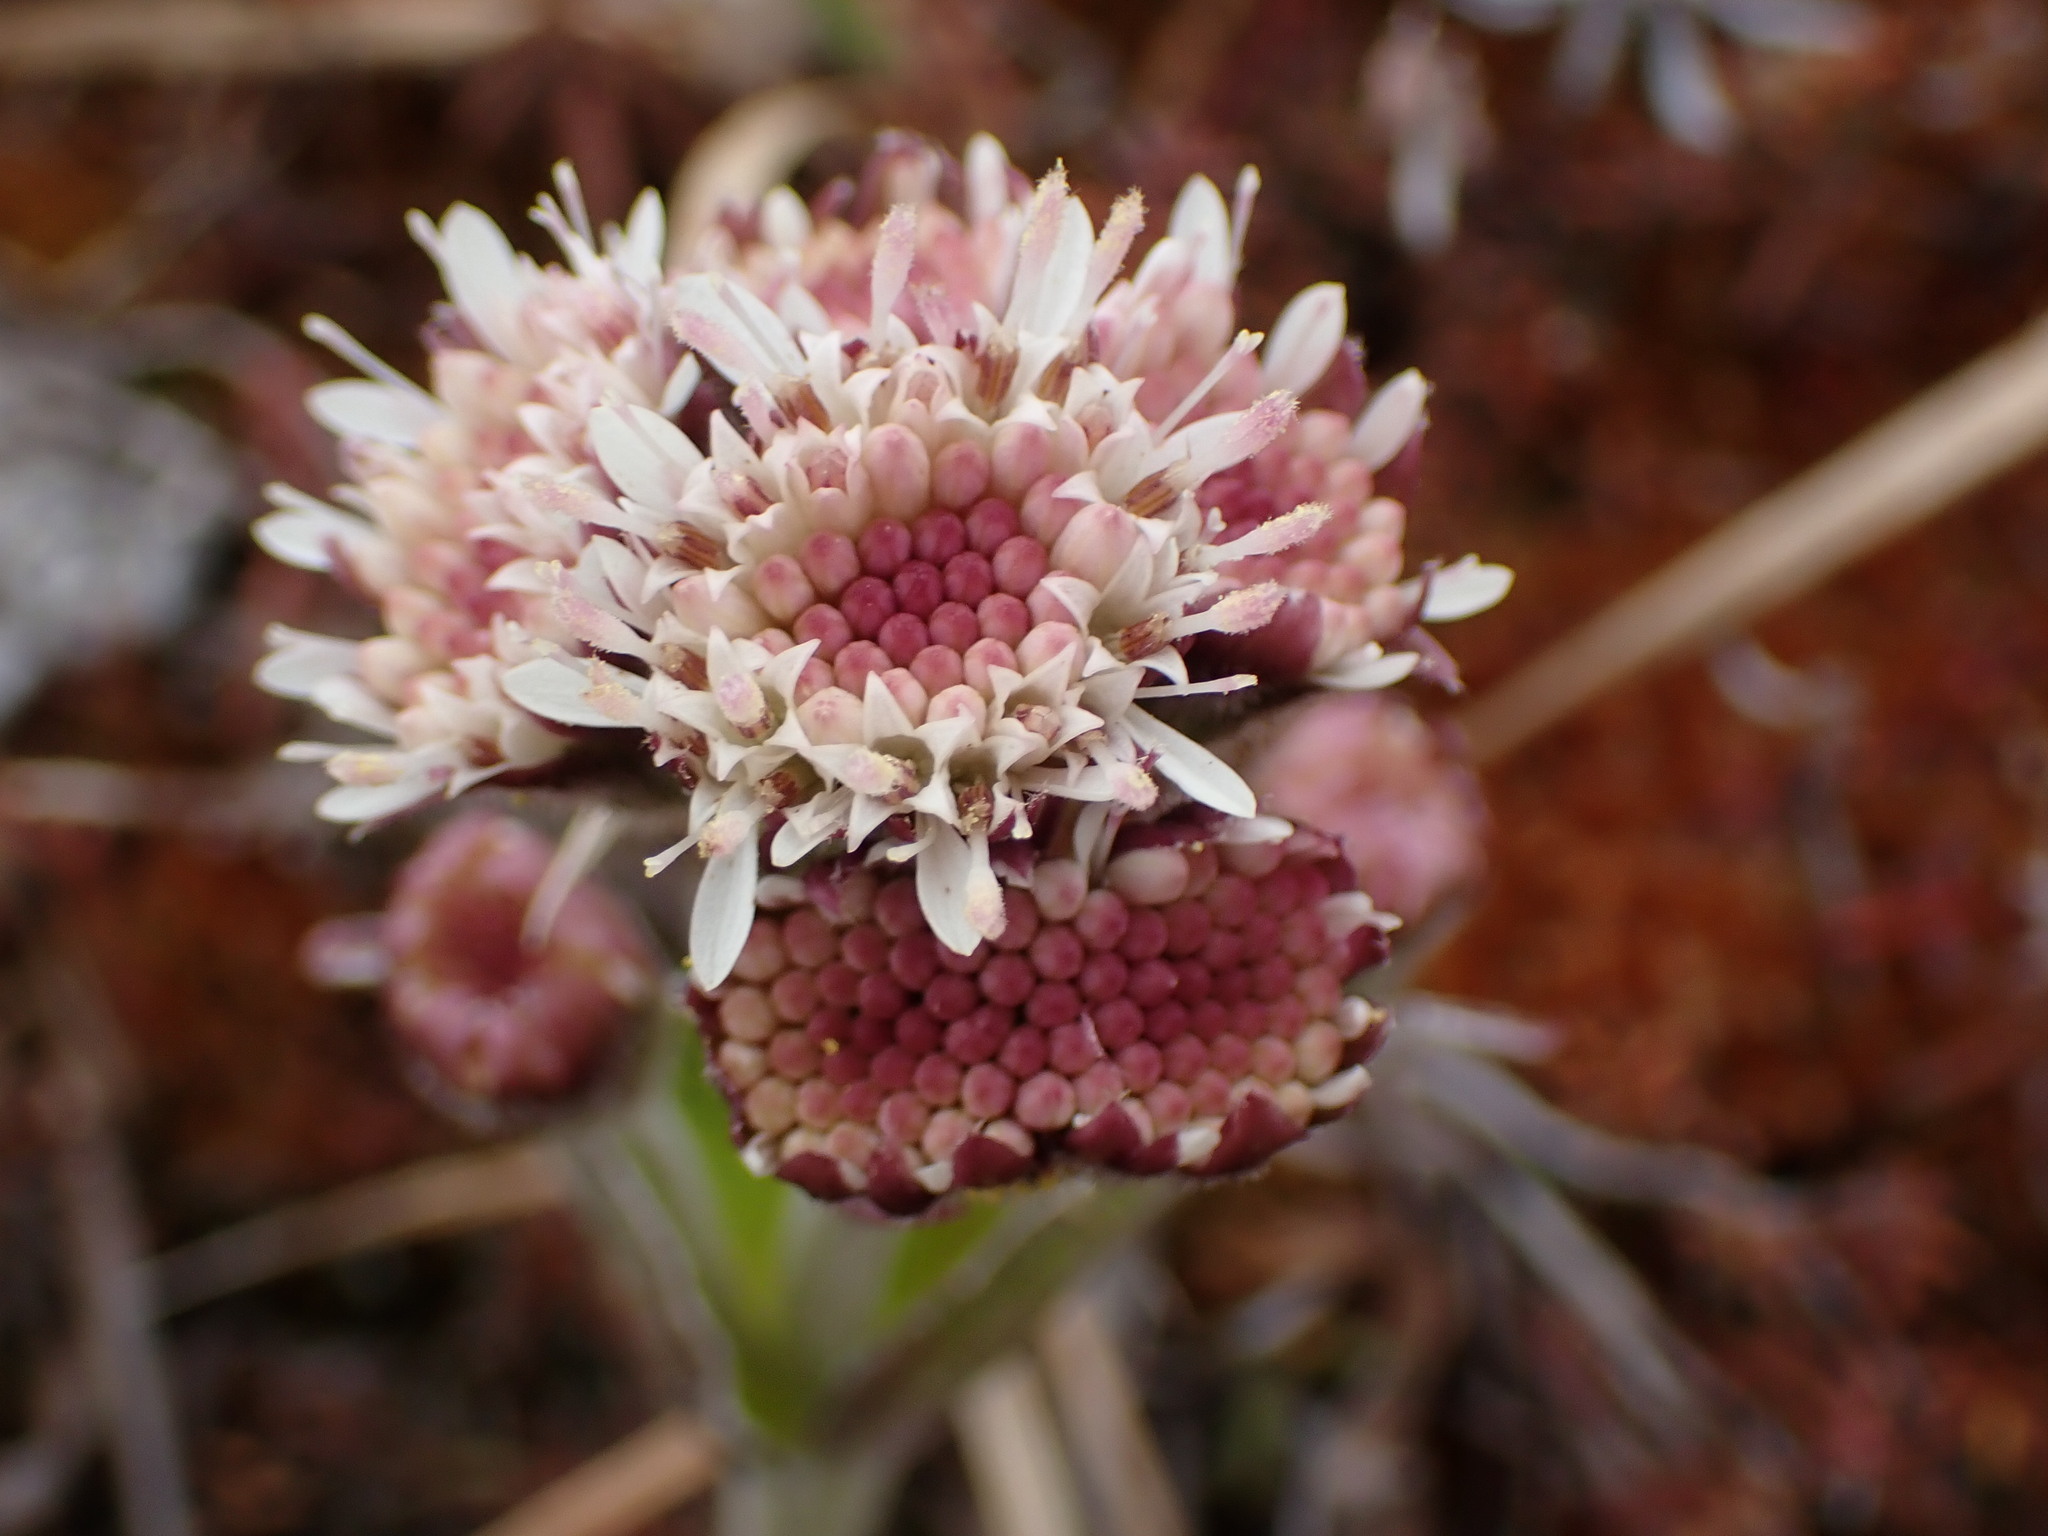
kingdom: Plantae
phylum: Tracheophyta
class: Magnoliopsida
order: Asterales
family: Asteraceae
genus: Petasites
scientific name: Petasites frigidus
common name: Arctic butterbur
